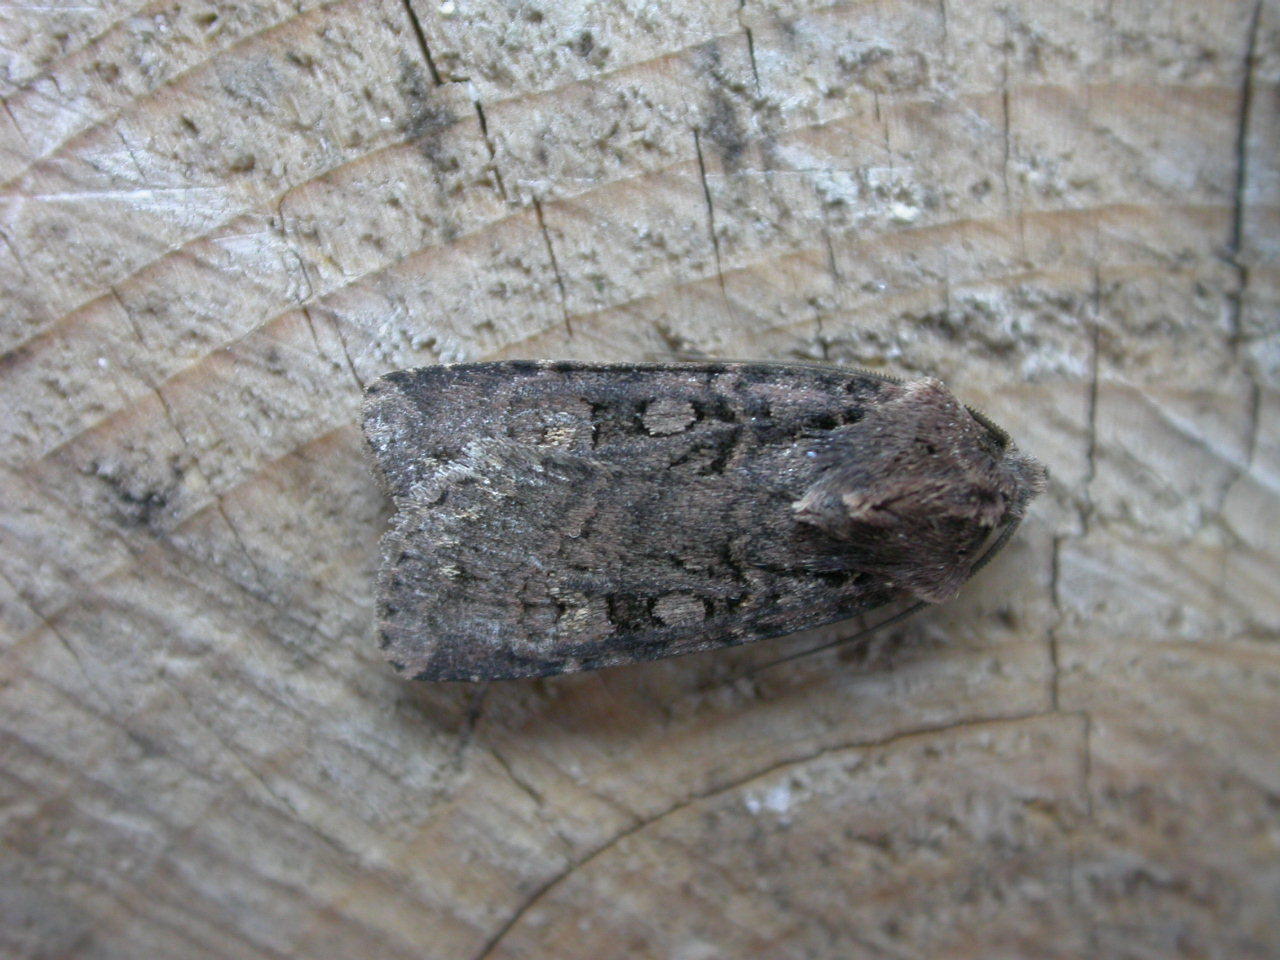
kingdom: Animalia
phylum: Arthropoda
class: Insecta
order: Lepidoptera
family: Noctuidae
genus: Euxoa
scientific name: Euxoa nigricans
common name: Garden dart
